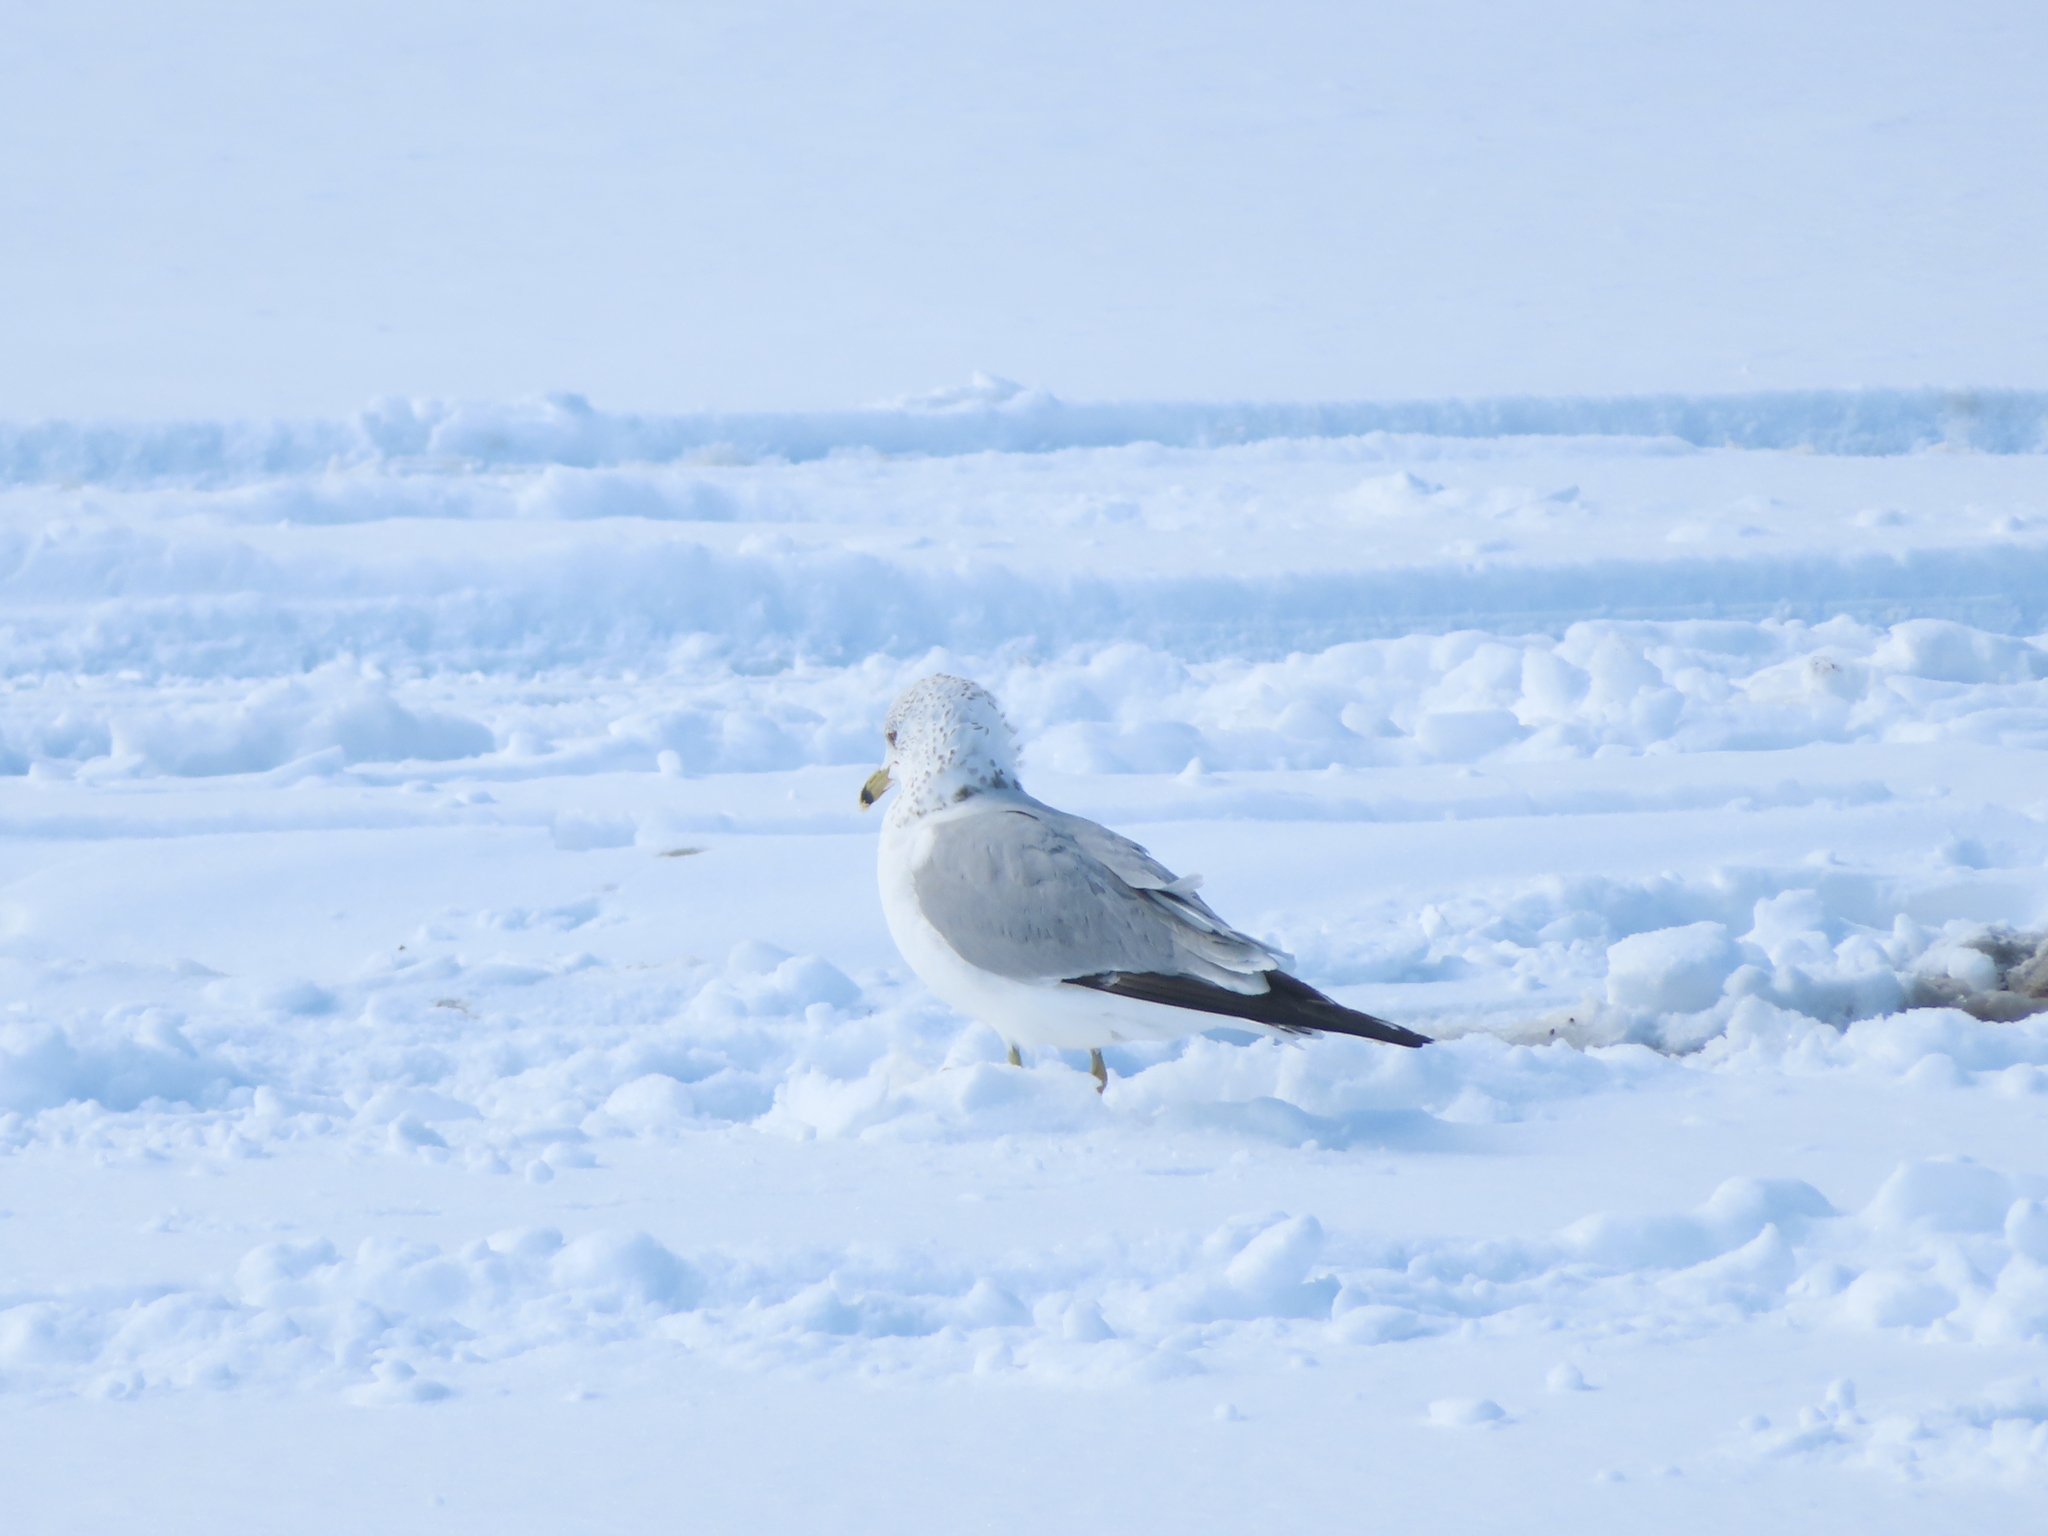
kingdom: Animalia
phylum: Chordata
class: Aves
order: Charadriiformes
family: Laridae
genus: Larus
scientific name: Larus delawarensis
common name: Ring-billed gull
